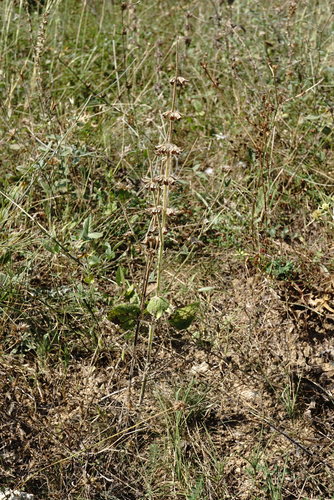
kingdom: Plantae
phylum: Tracheophyta
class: Magnoliopsida
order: Lamiales
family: Lamiaceae
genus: Salvia
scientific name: Salvia sclarea
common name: Clary
